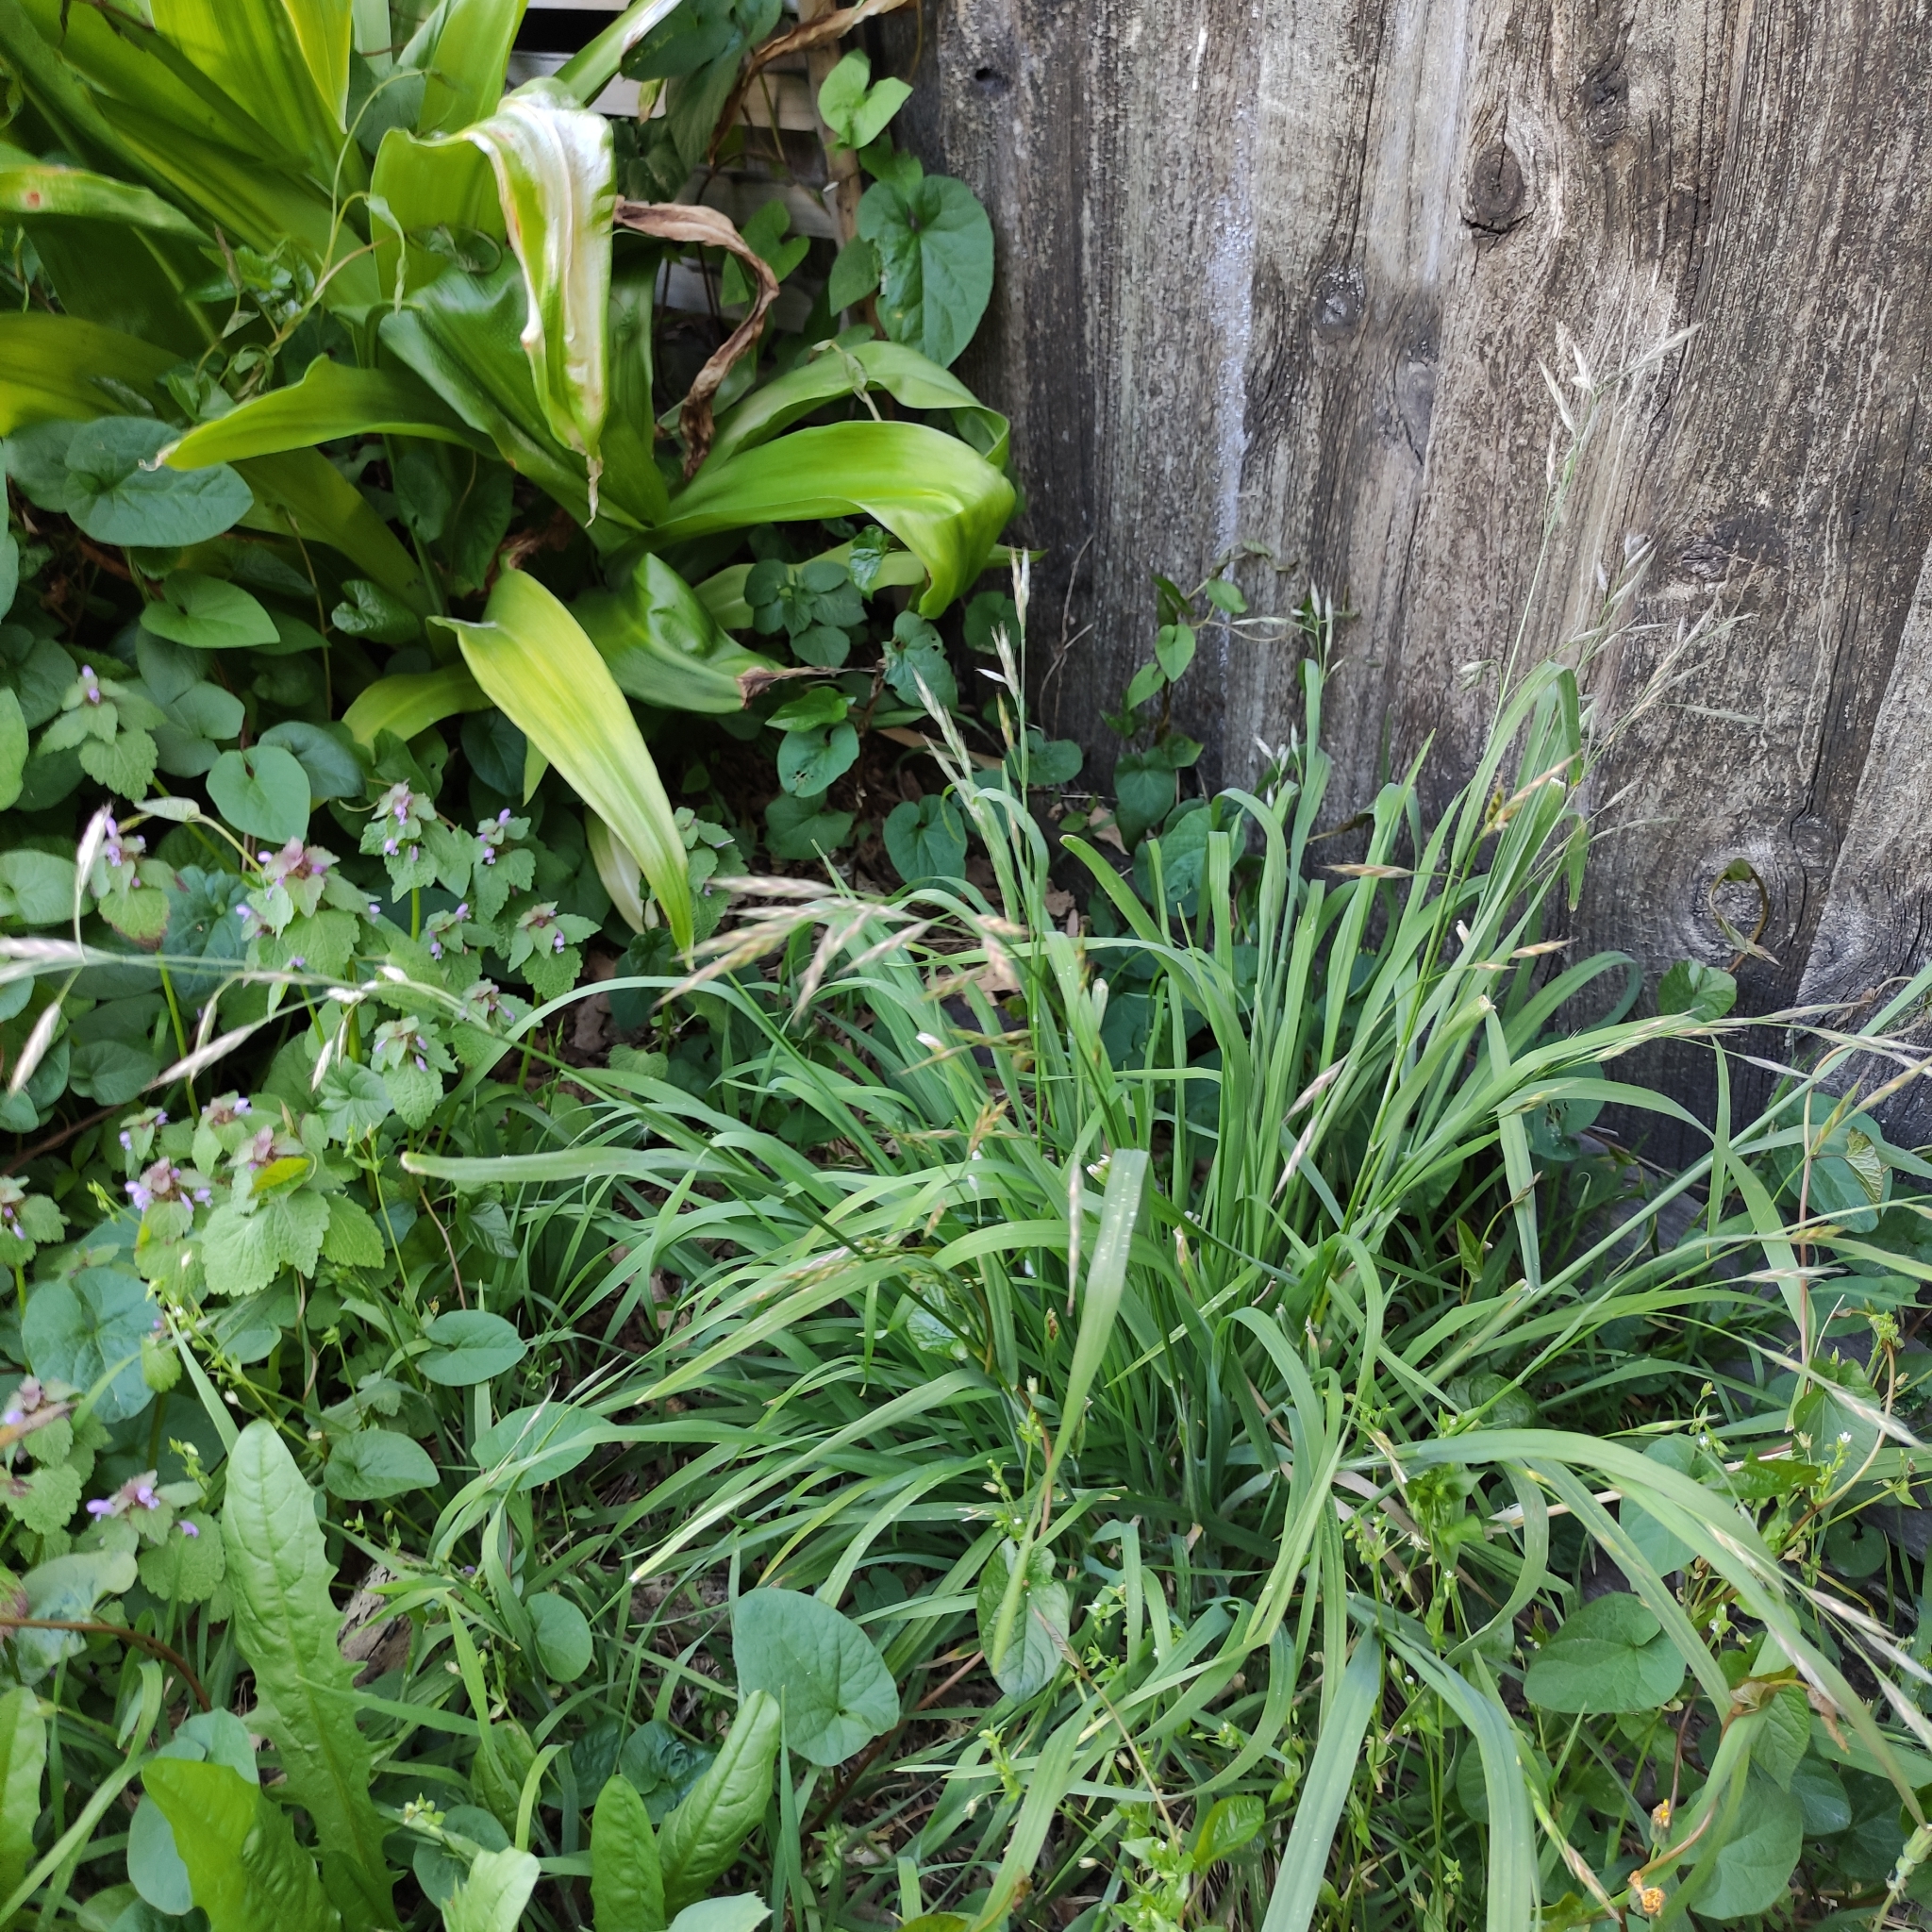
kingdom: Plantae
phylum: Tracheophyta
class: Liliopsida
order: Poales
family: Poaceae
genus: Bromus
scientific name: Bromus catharticus
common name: Rescuegrass
